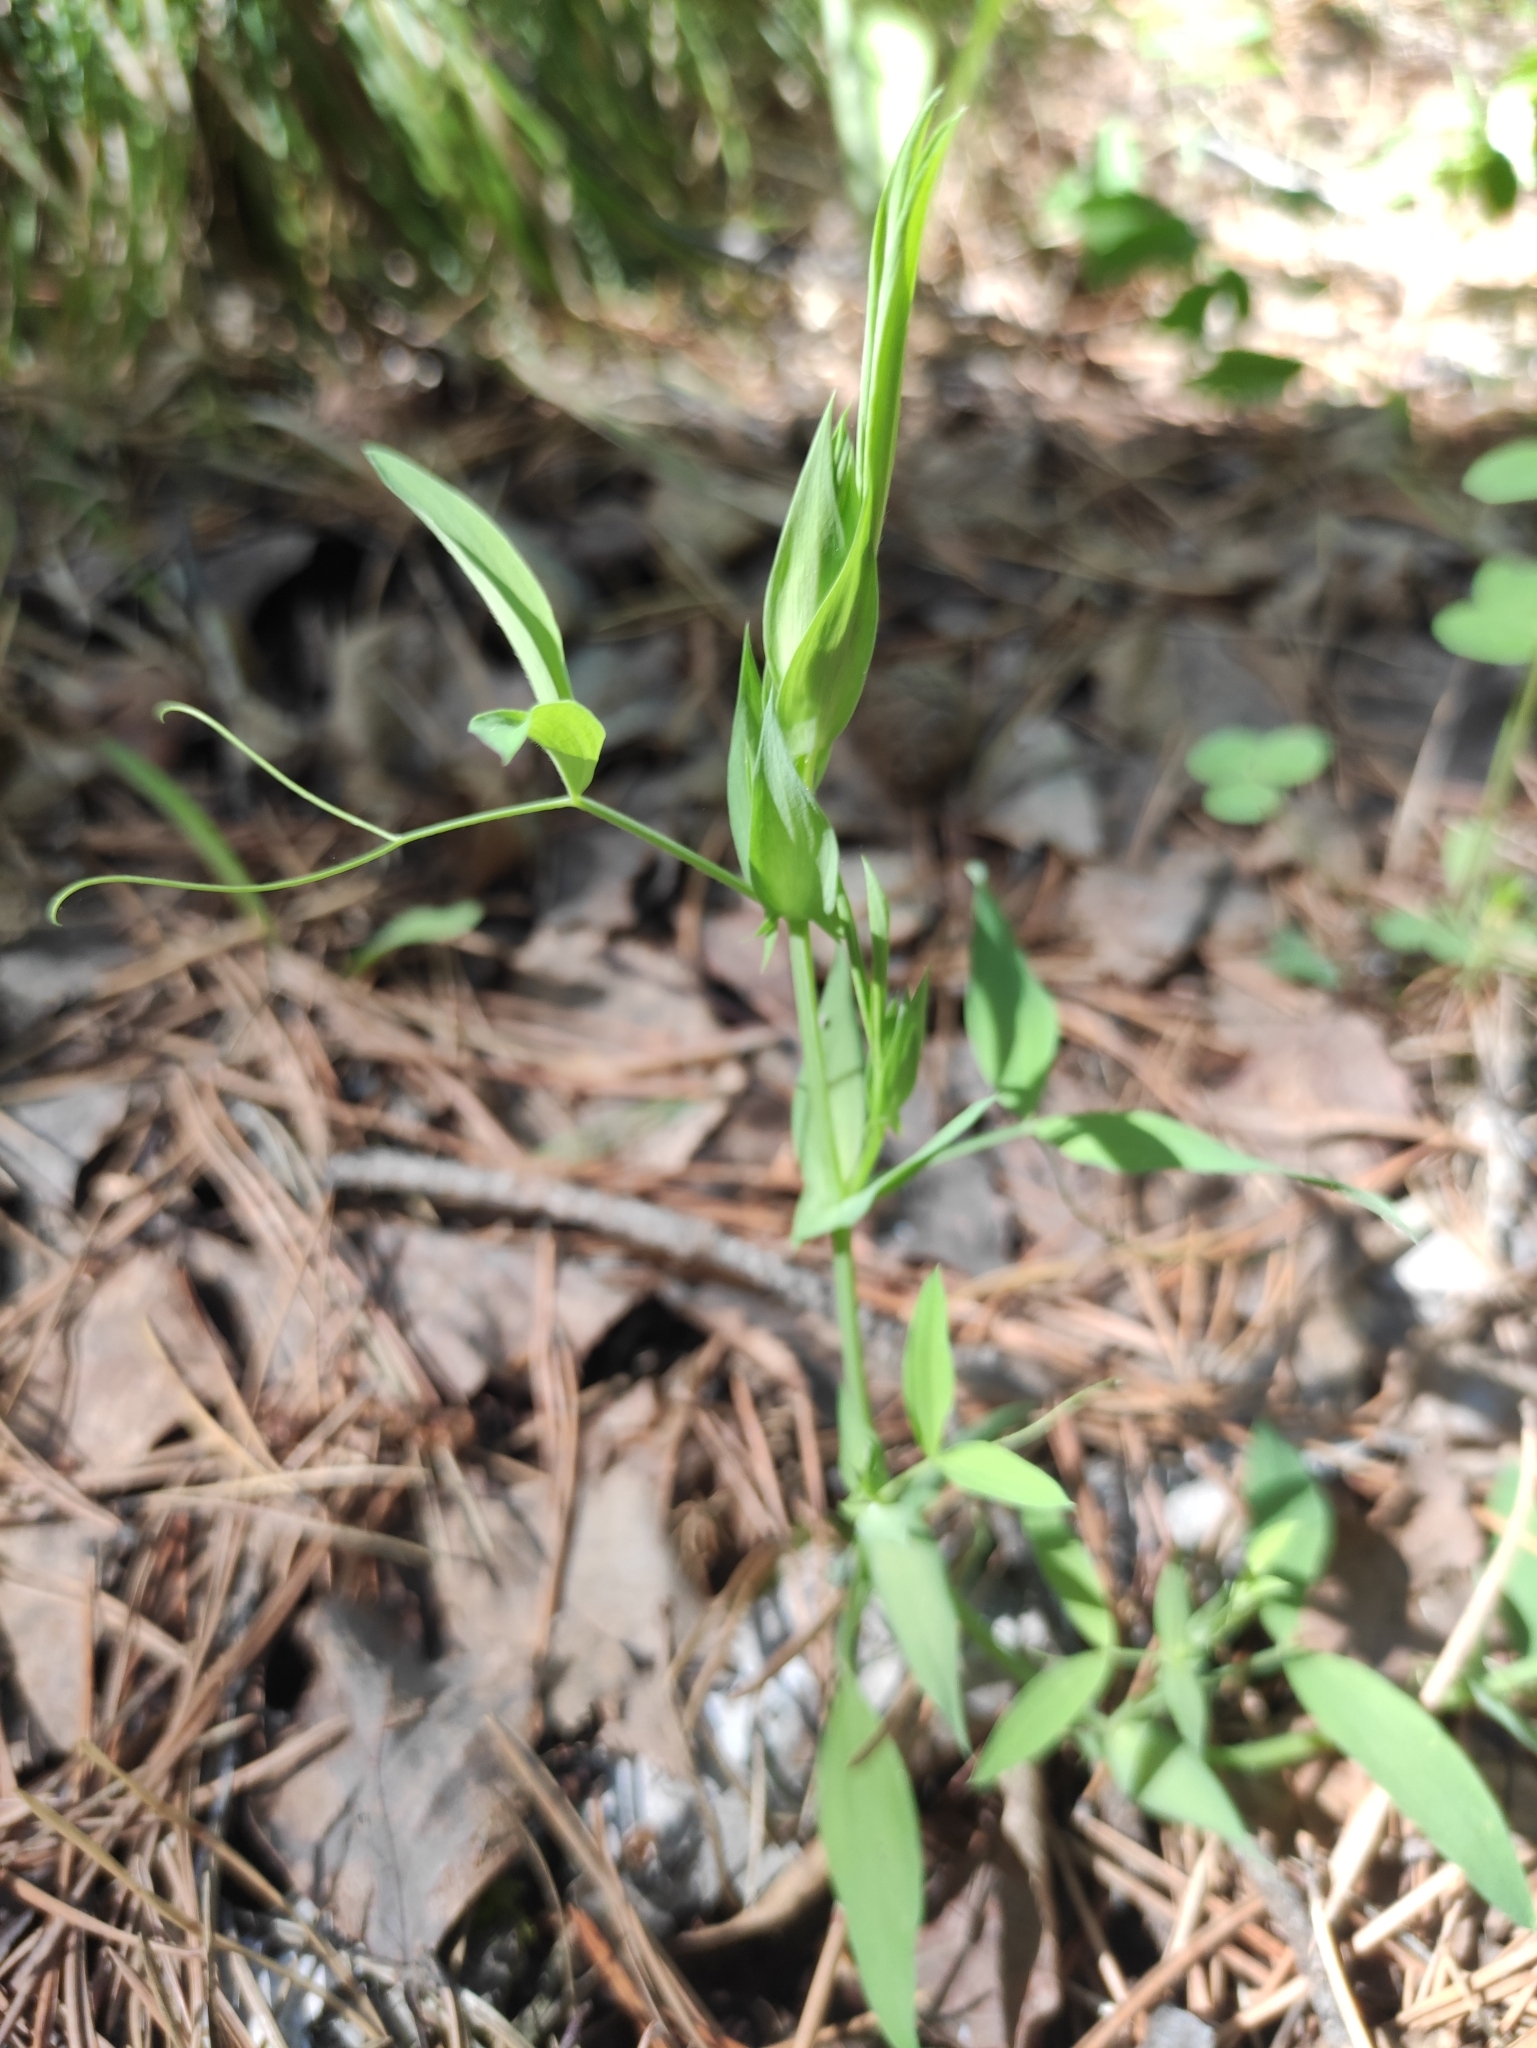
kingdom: Plantae
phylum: Tracheophyta
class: Magnoliopsida
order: Fabales
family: Fabaceae
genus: Lathyrus
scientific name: Lathyrus pratensis
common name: Meadow vetchling
